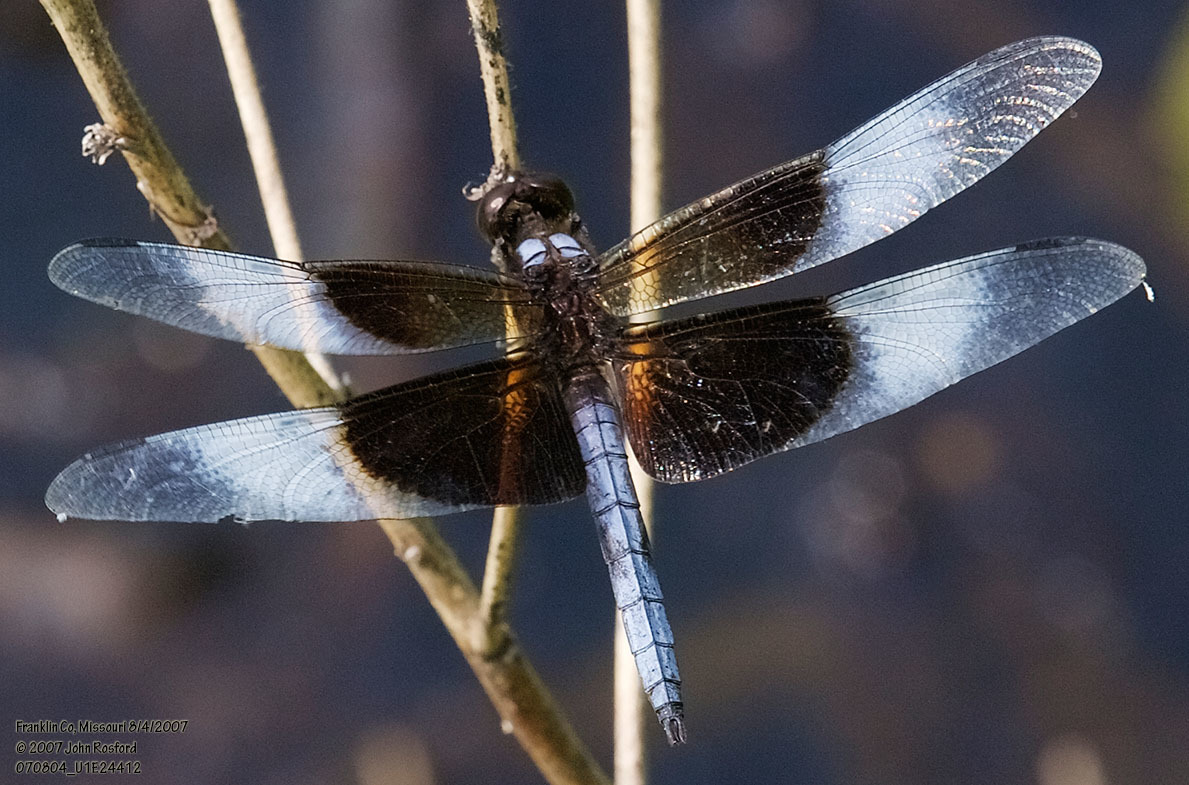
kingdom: Animalia
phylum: Arthropoda
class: Insecta
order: Odonata
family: Libellulidae
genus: Libellula
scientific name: Libellula luctuosa
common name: Widow skimmer
